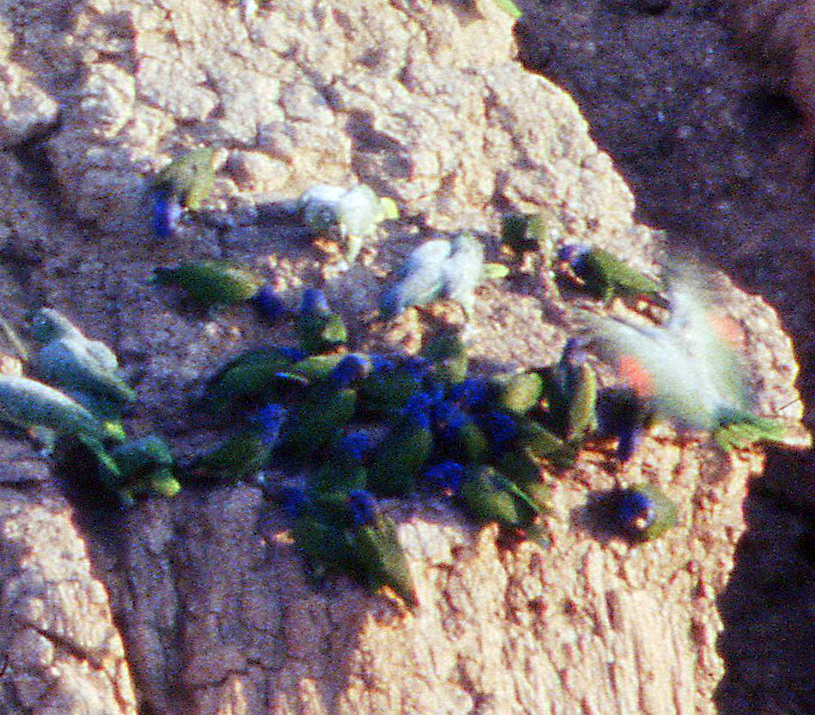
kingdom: Animalia
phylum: Chordata
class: Aves
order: Psittaciformes
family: Psittacidae
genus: Pionus
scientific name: Pionus menstruus
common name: Blue-headed parrot
